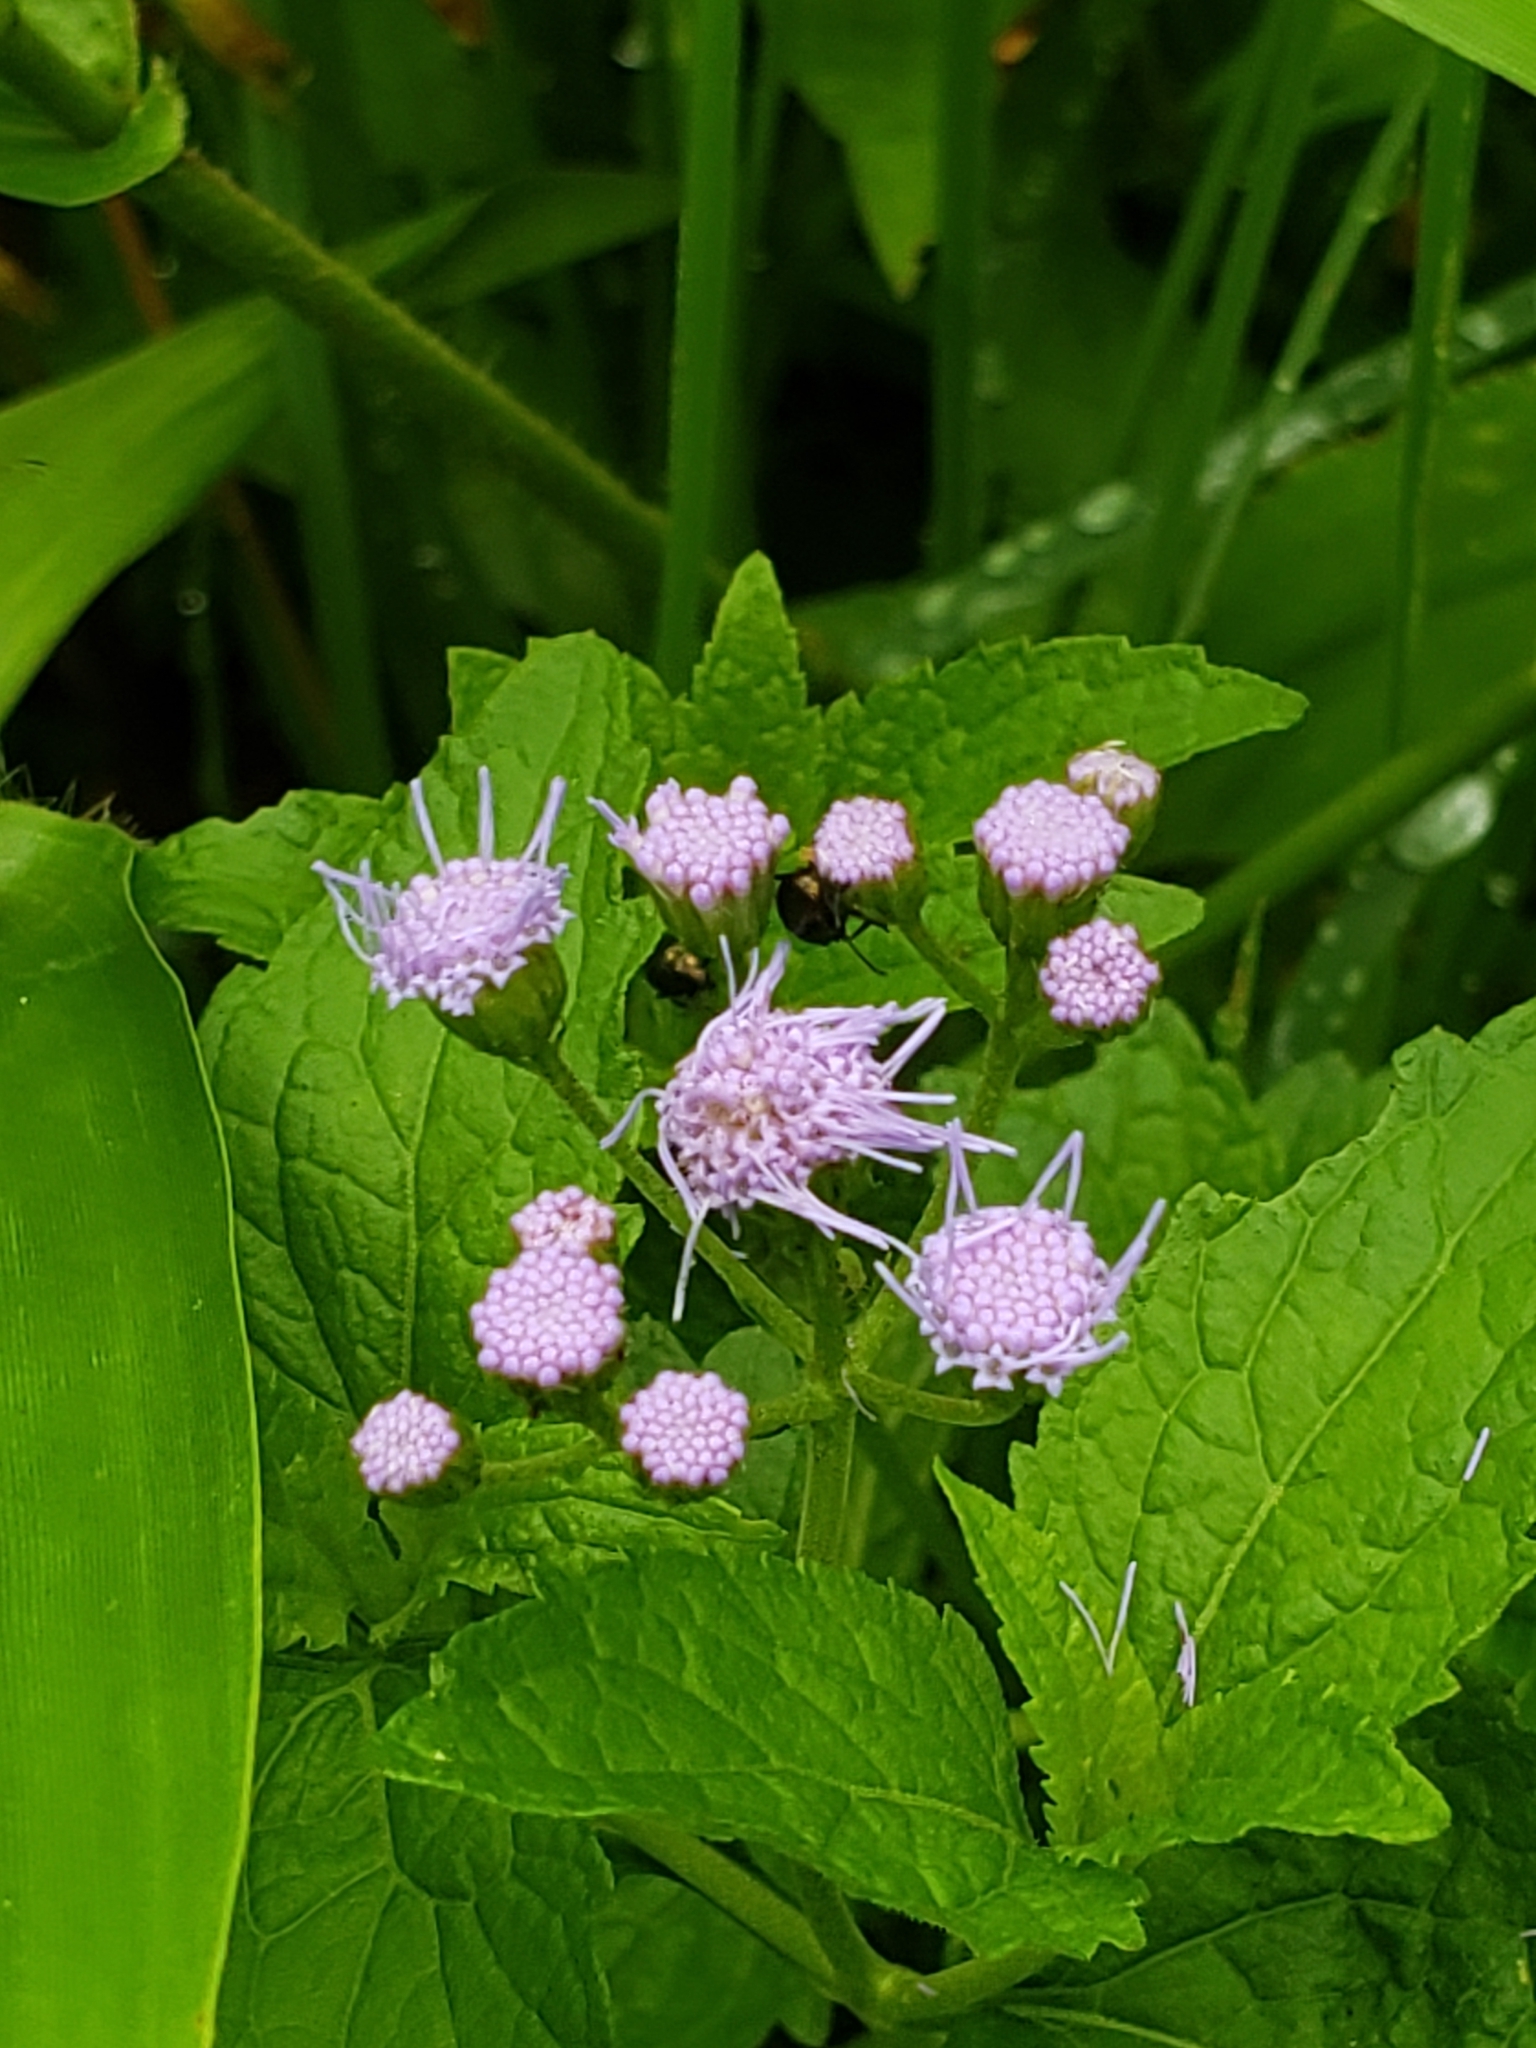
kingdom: Plantae
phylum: Tracheophyta
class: Magnoliopsida
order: Asterales
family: Asteraceae
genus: Conoclinium
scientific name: Conoclinium coelestinum
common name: Blue mistflower
